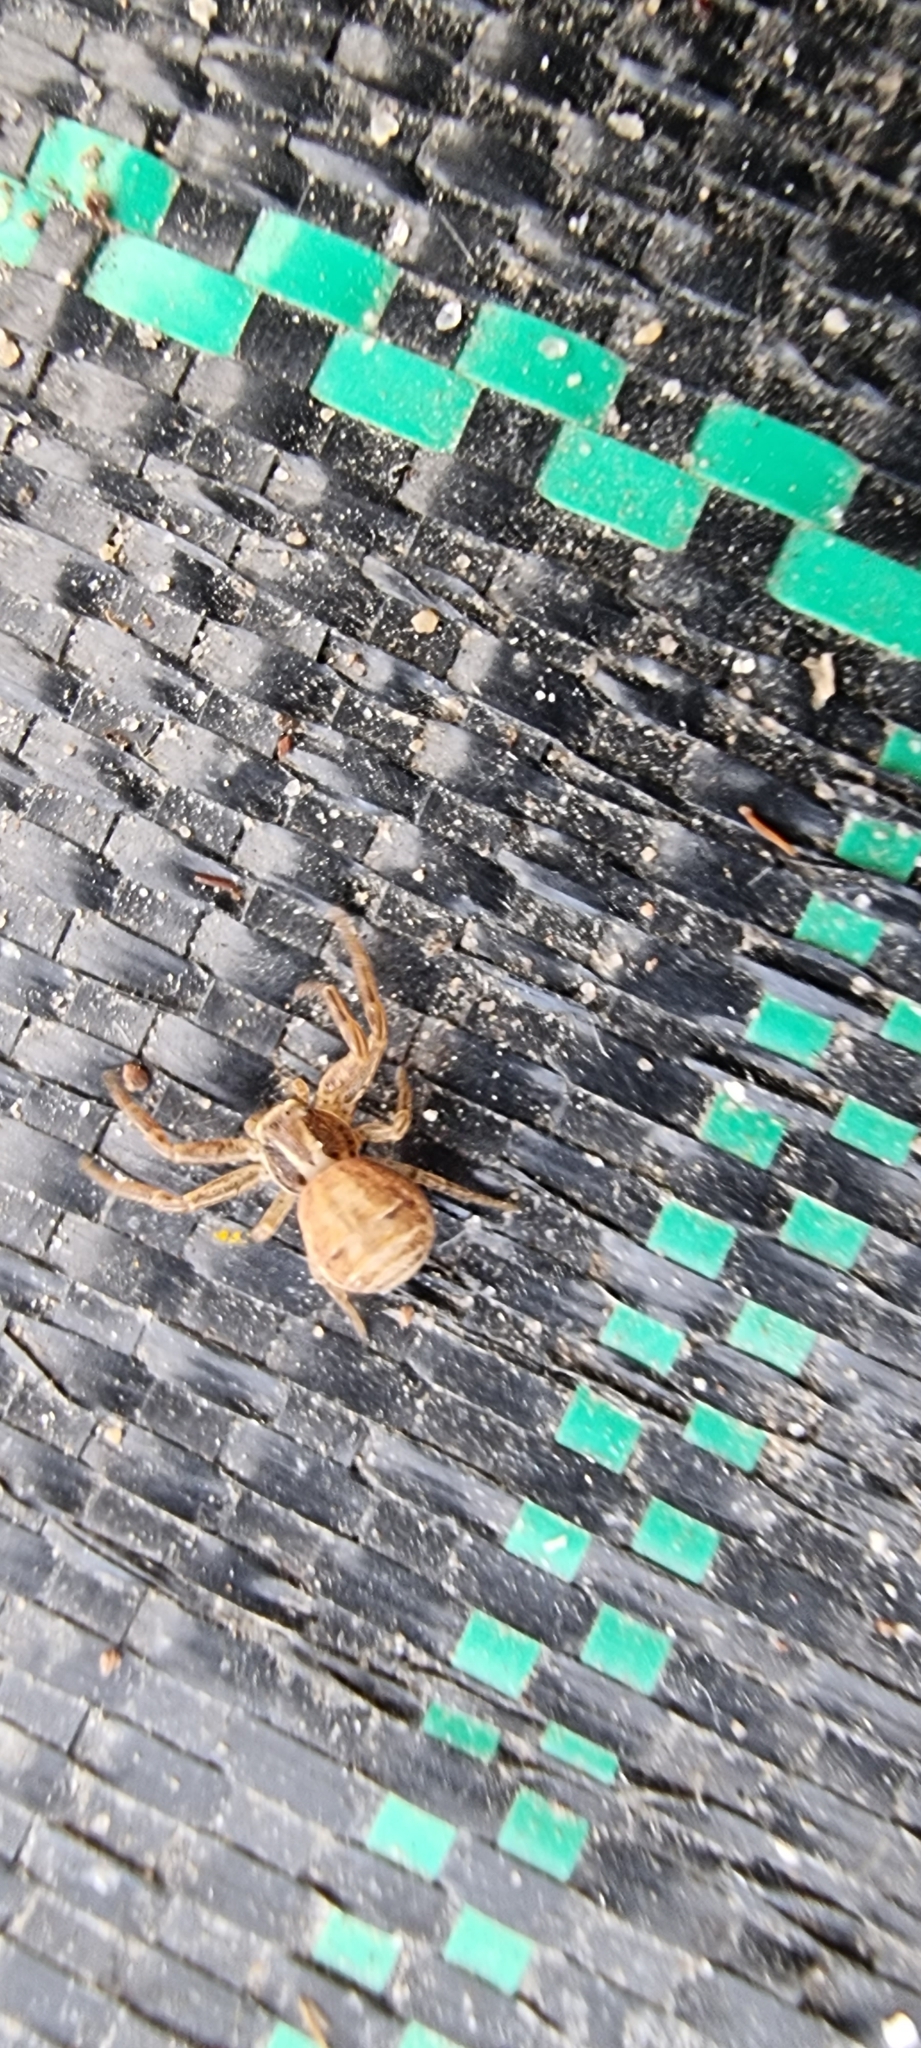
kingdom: Animalia
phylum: Arthropoda
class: Arachnida
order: Araneae
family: Thomisidae
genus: Xysticus
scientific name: Xysticus
